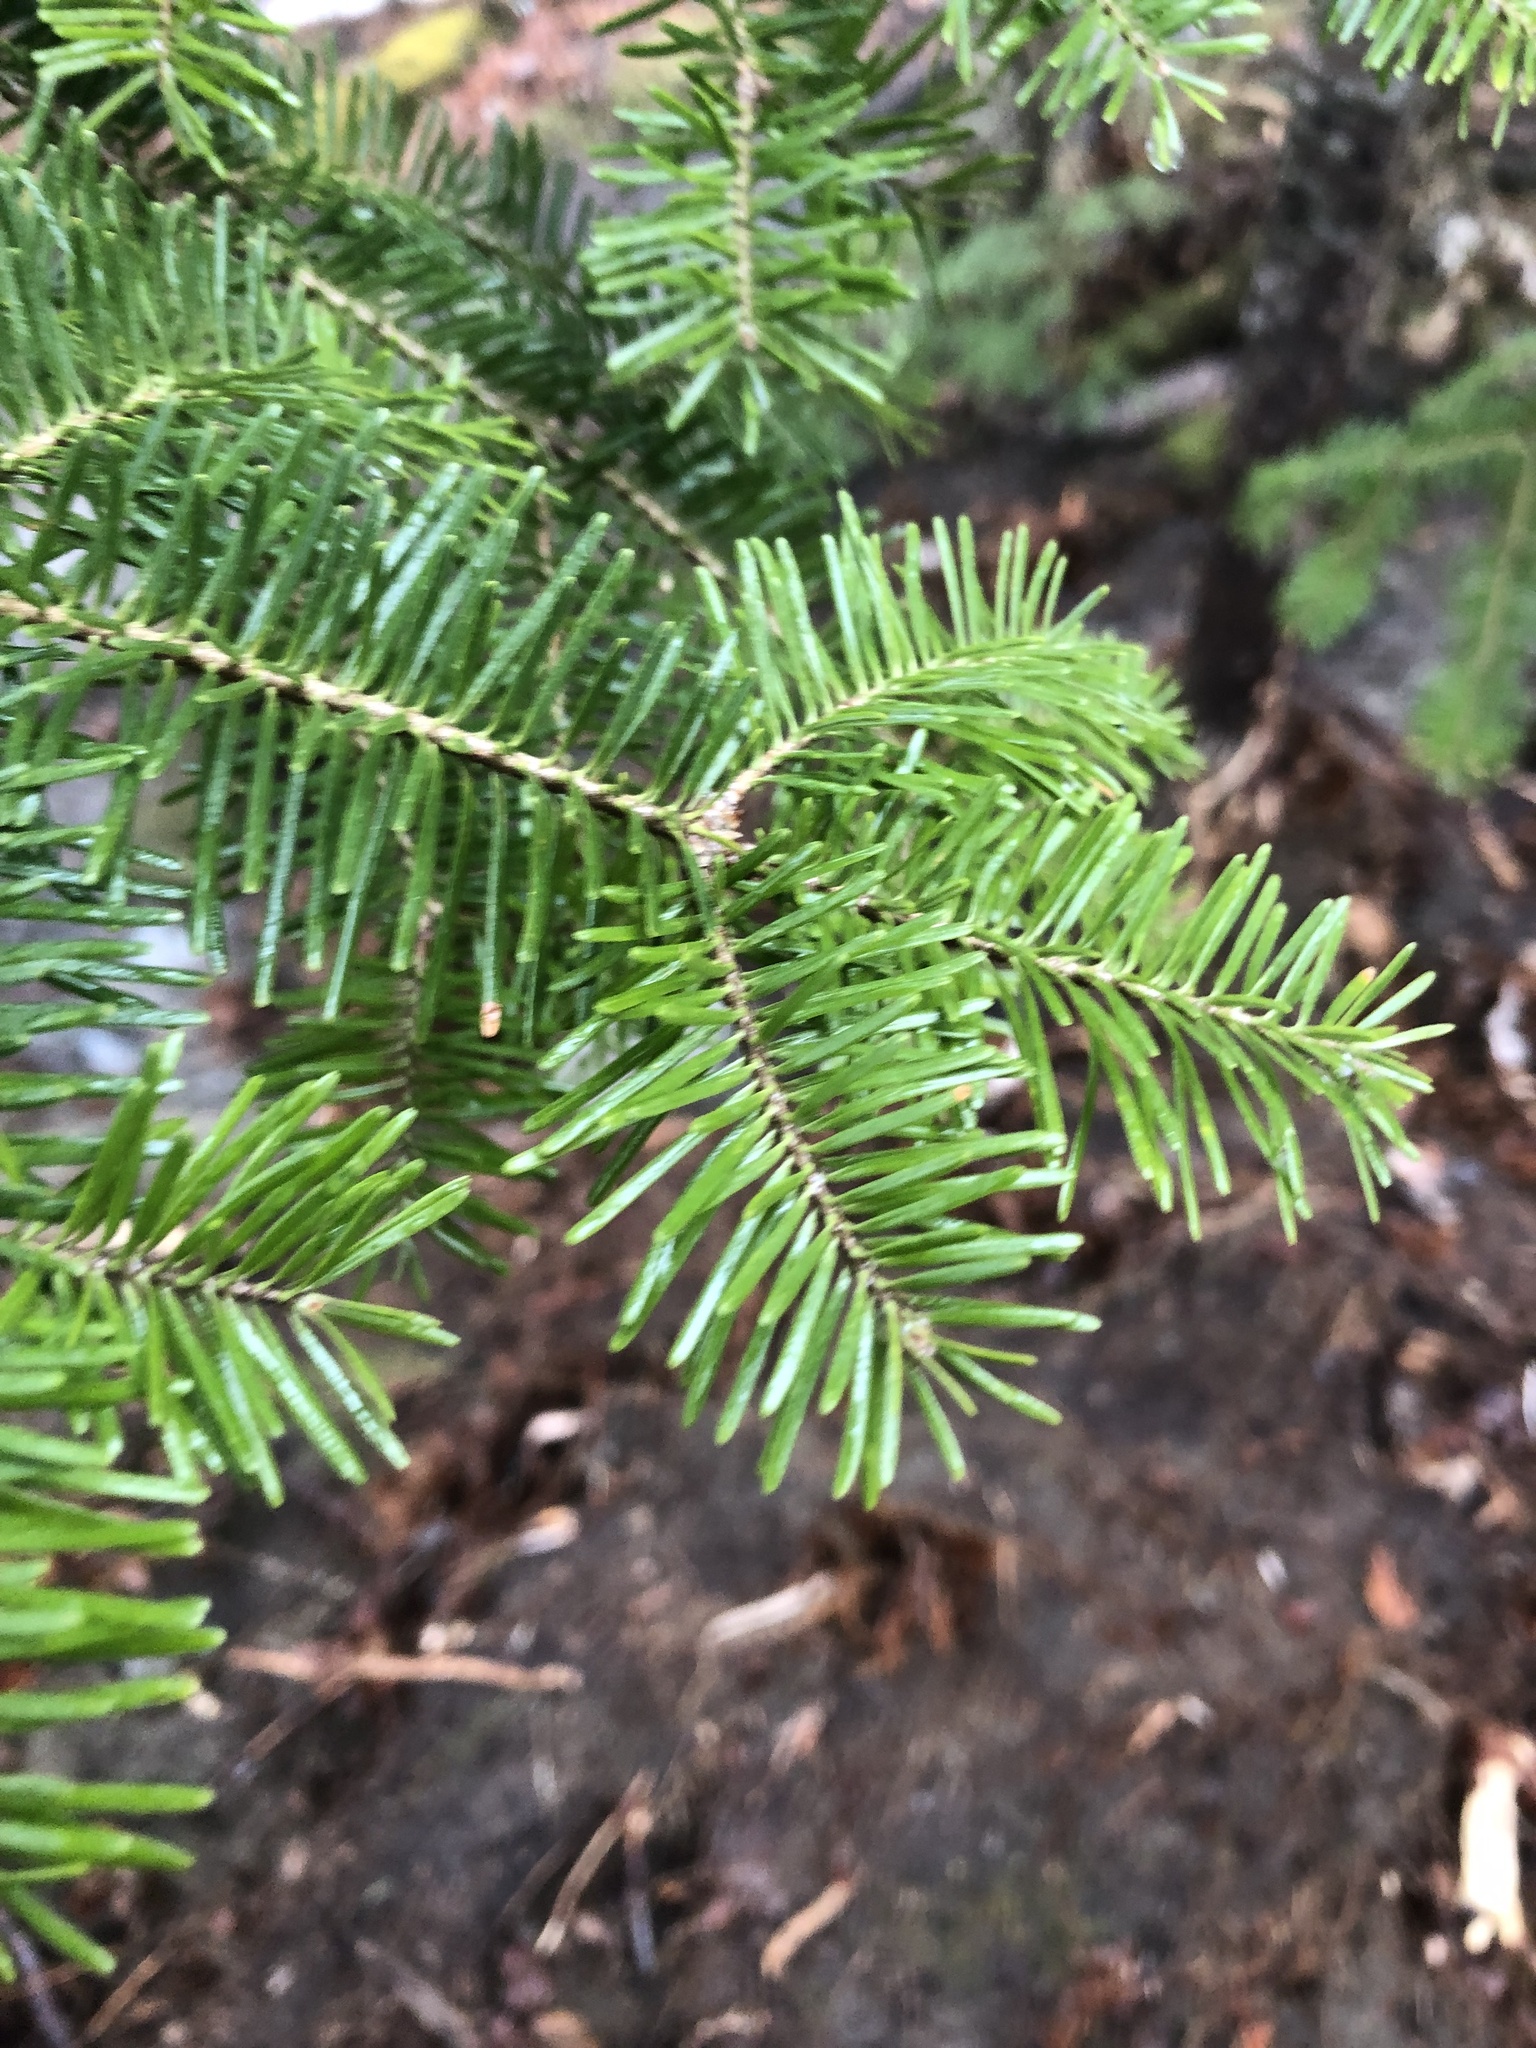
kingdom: Plantae
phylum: Tracheophyta
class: Pinopsida
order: Pinales
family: Pinaceae
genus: Abies
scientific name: Abies balsamea
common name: Balsam fir
